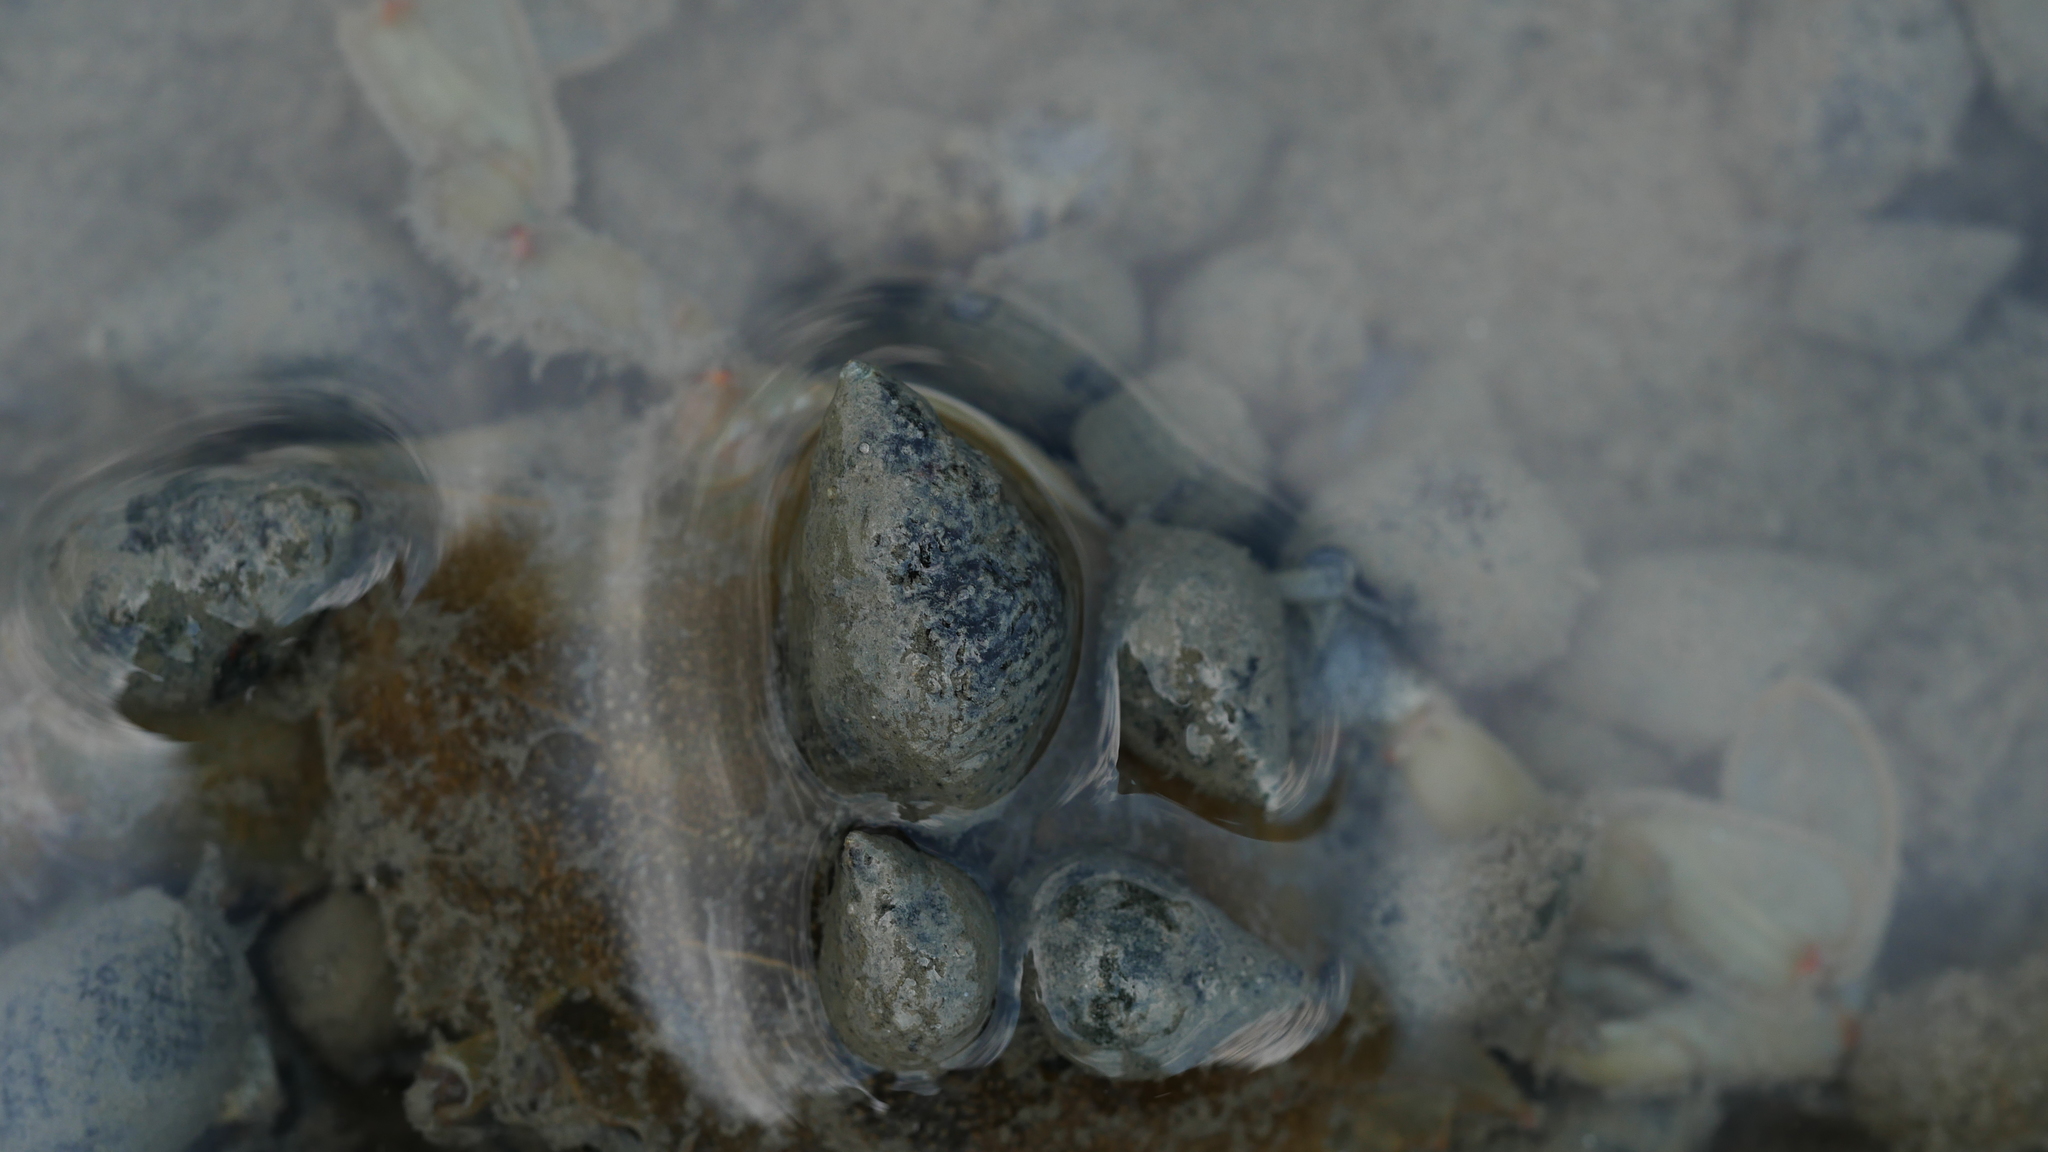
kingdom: Animalia
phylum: Mollusca
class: Gastropoda
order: Neogastropoda
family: Nassariidae
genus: Ilyanassa
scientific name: Ilyanassa obsoleta
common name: Eastern mudsnail
